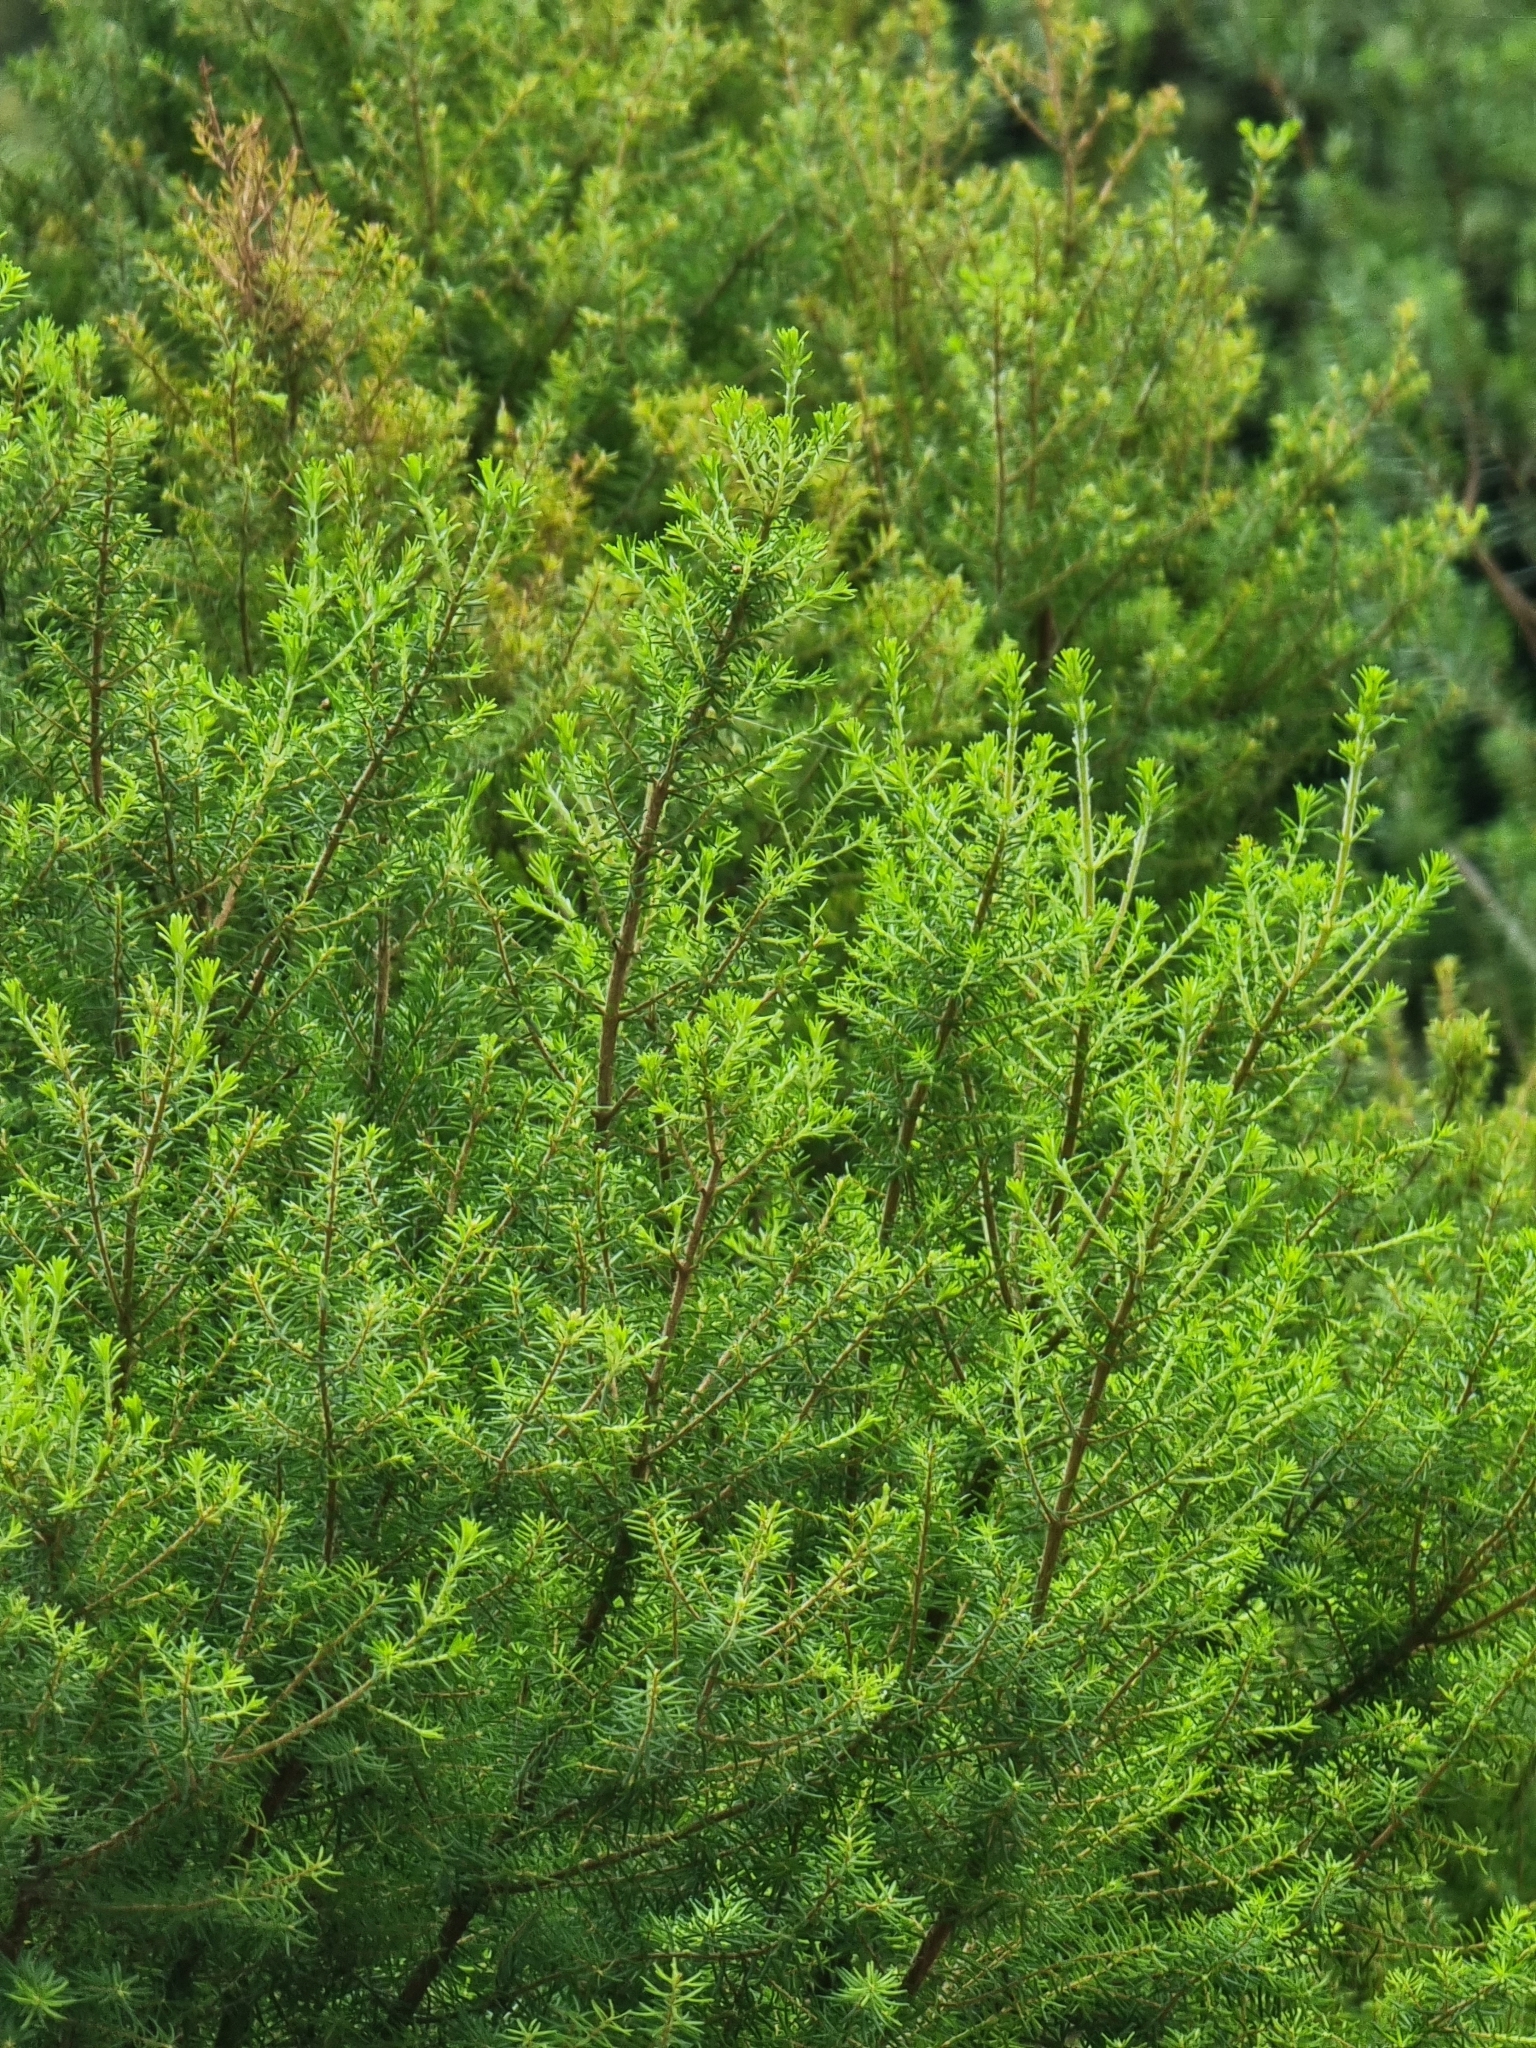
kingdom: Plantae
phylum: Tracheophyta
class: Magnoliopsida
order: Ericales
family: Ericaceae
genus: Erica
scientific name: Erica platycodon
